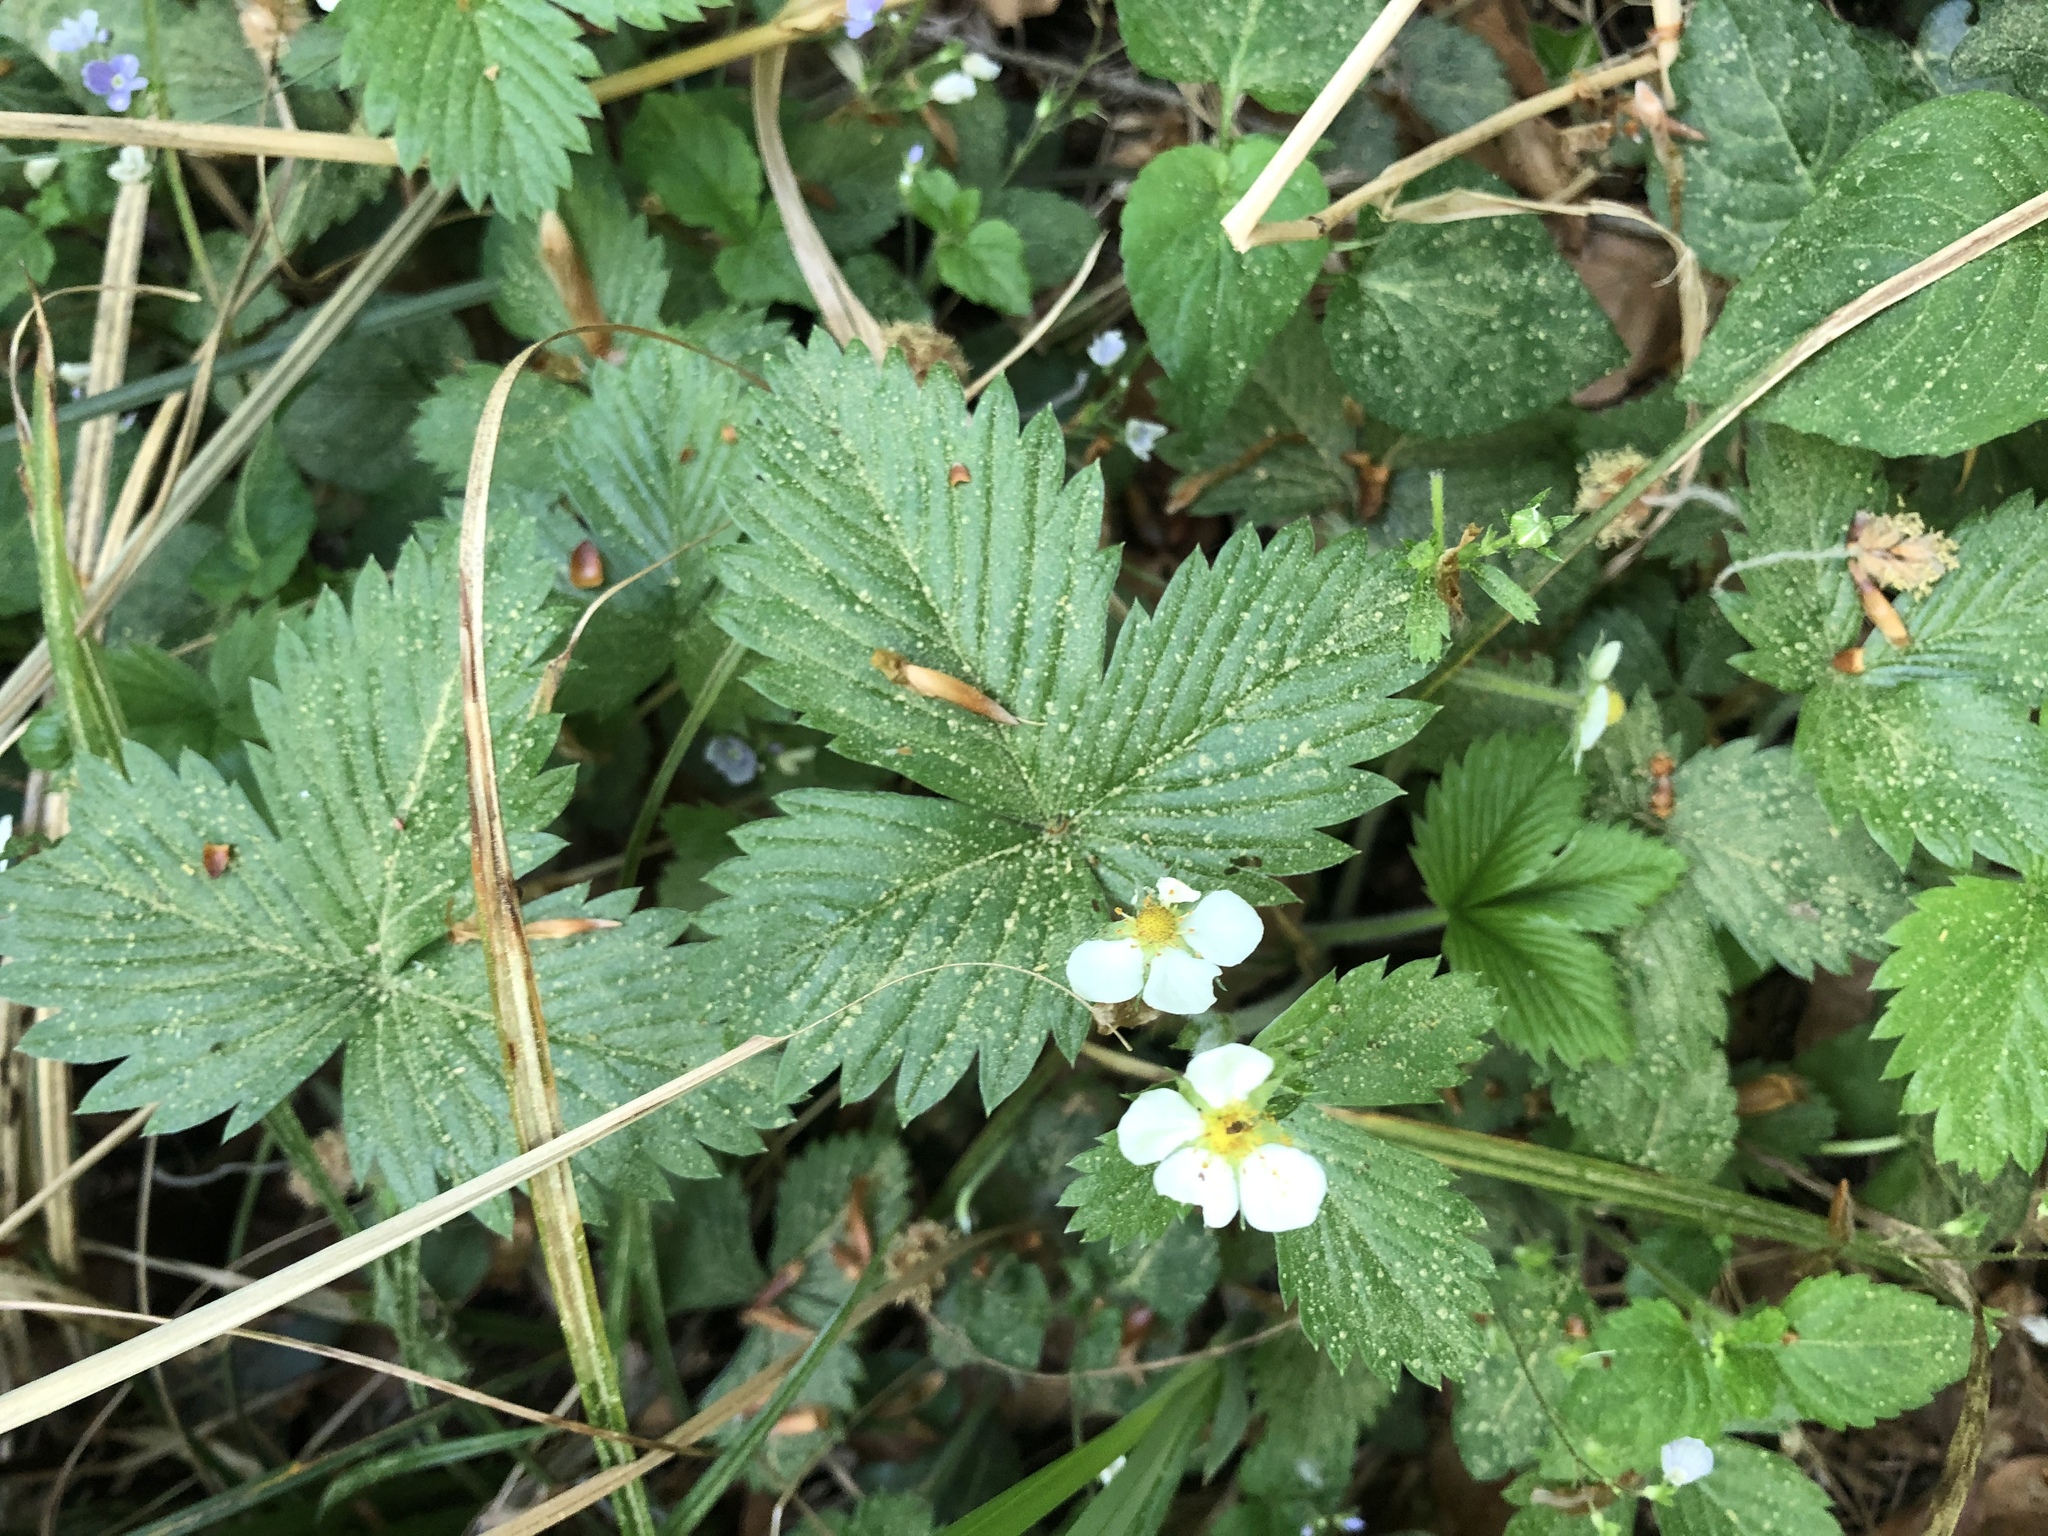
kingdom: Plantae
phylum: Tracheophyta
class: Magnoliopsida
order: Rosales
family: Rosaceae
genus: Fragaria
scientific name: Fragaria vesca
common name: Wild strawberry
